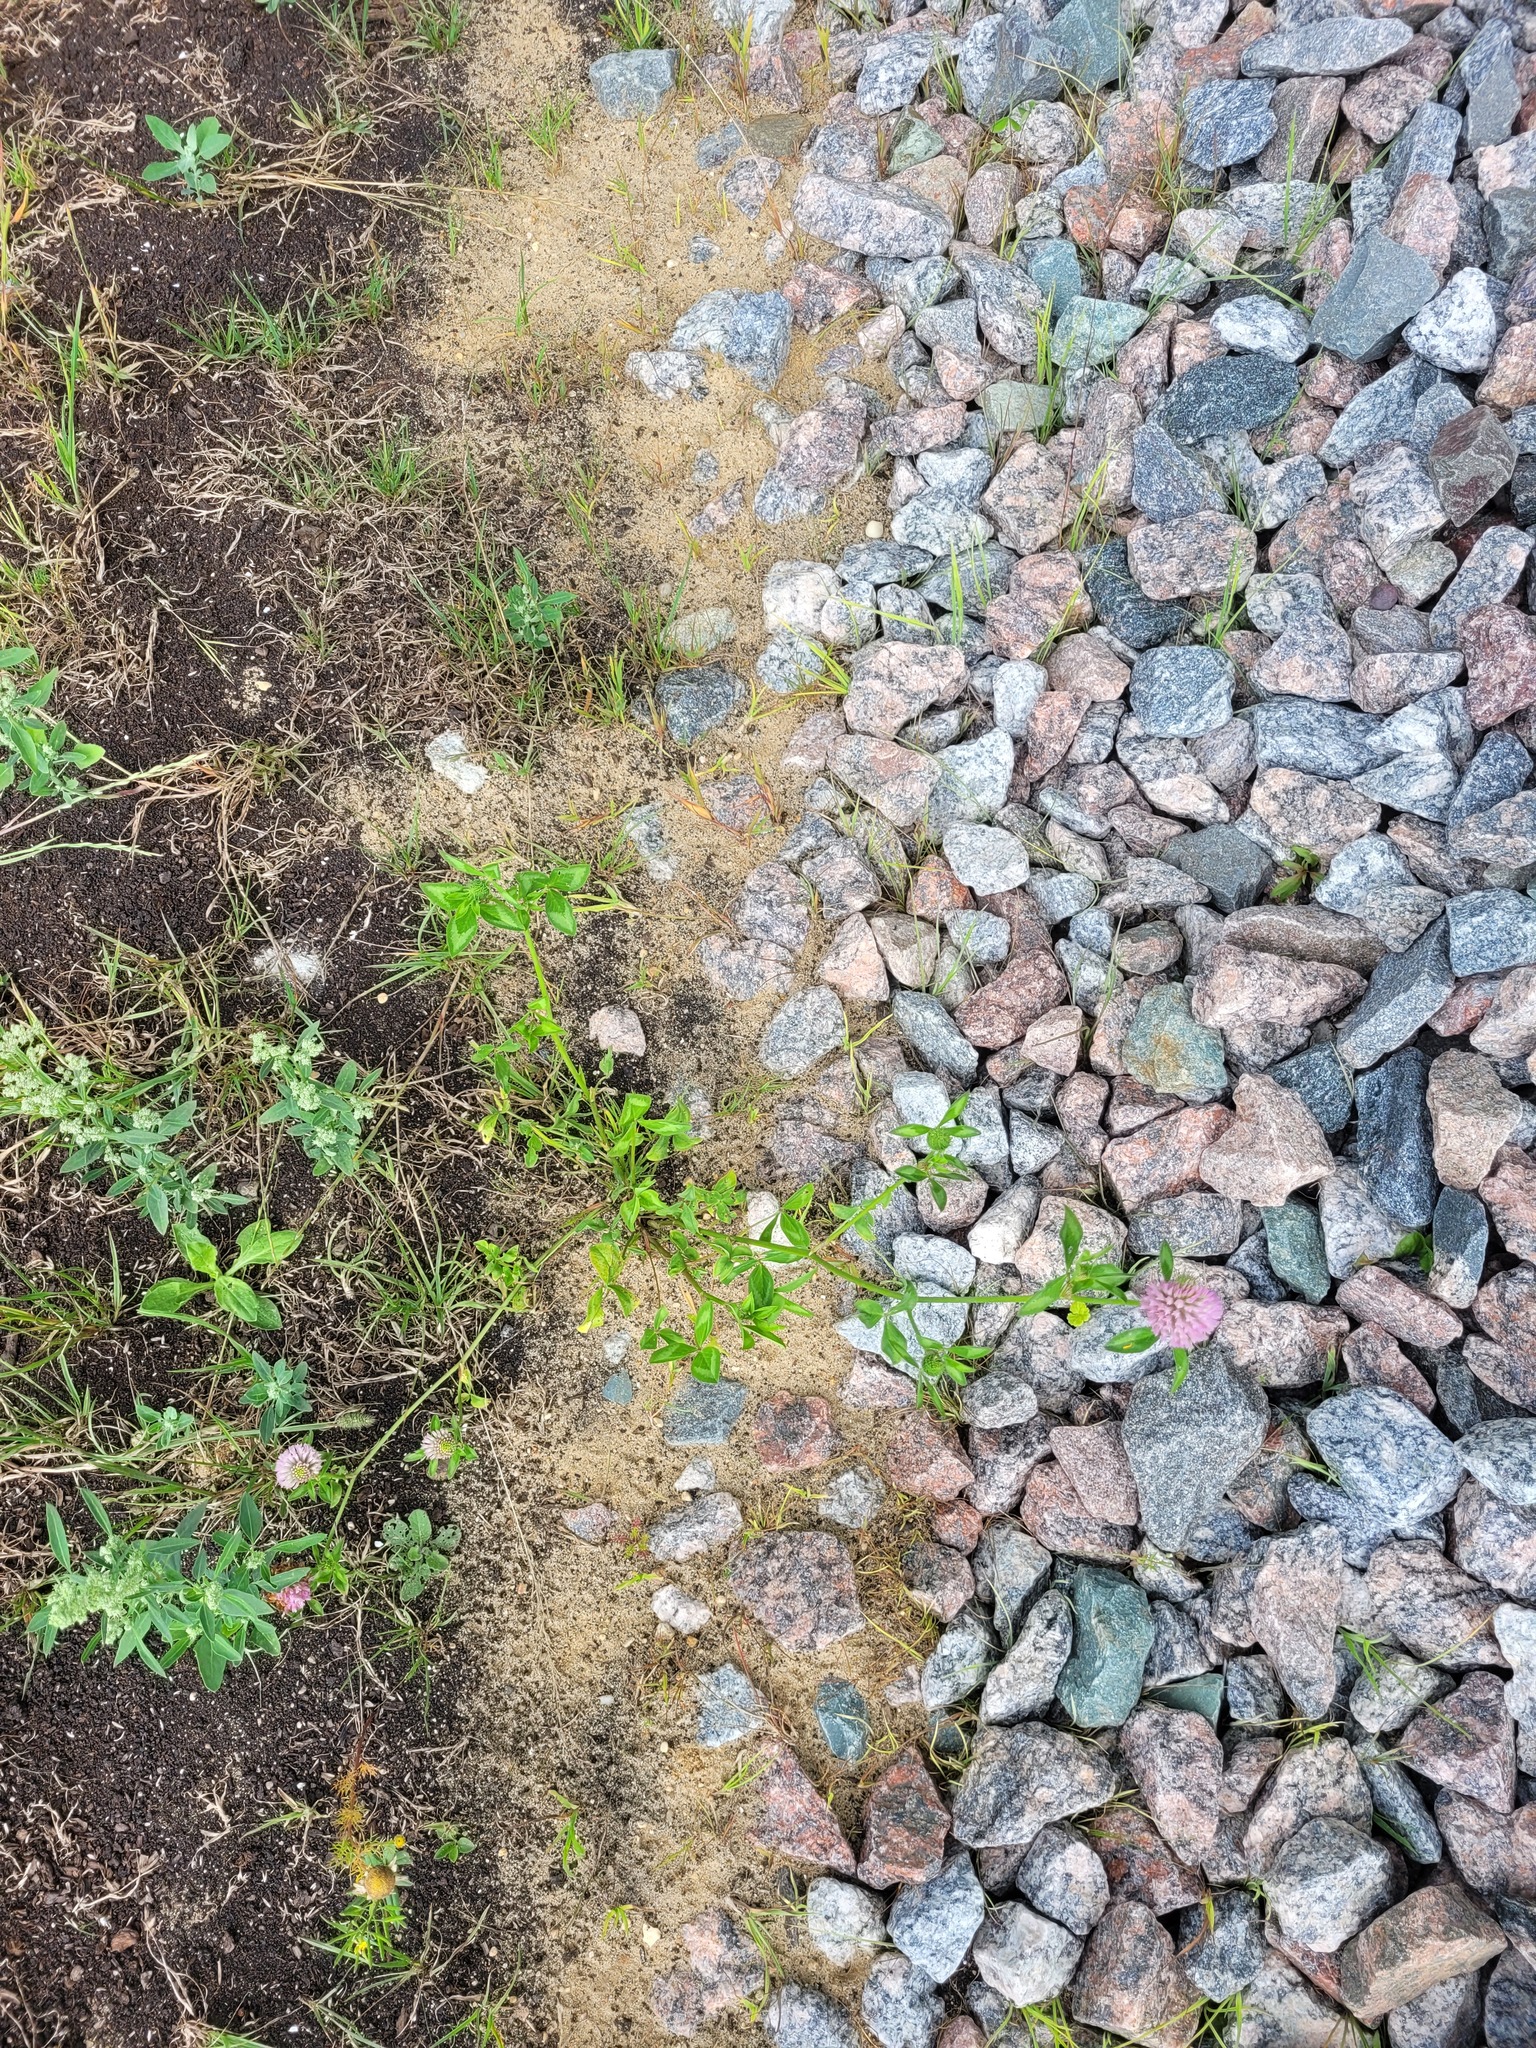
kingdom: Plantae
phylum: Tracheophyta
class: Magnoliopsida
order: Fabales
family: Fabaceae
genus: Trifolium
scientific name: Trifolium pratense
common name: Red clover
